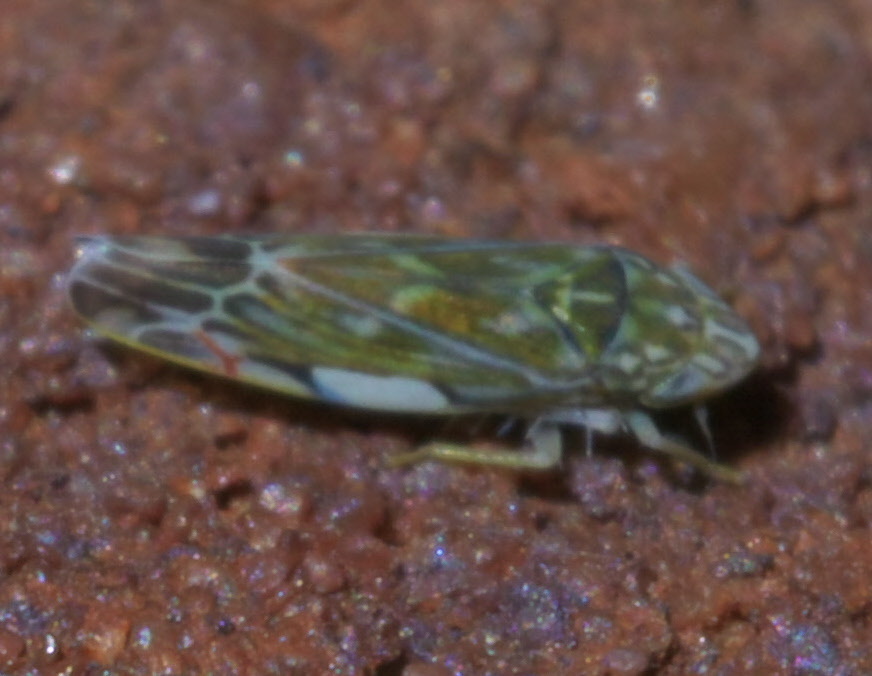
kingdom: Animalia
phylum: Arthropoda
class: Insecta
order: Hemiptera
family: Cicadellidae
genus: Erasmoneura
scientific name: Erasmoneura vulnerata
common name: The wounded leafhopper
